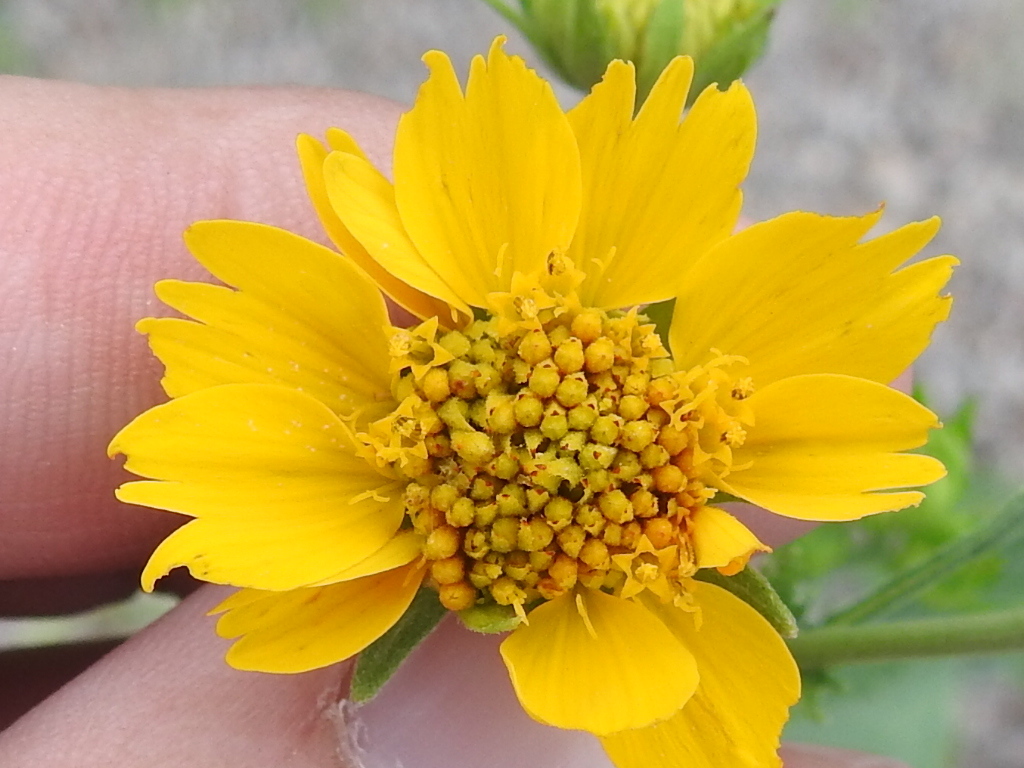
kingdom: Plantae
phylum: Tracheophyta
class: Magnoliopsida
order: Asterales
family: Asteraceae
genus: Verbesina
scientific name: Verbesina encelioides
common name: Golden crownbeard
